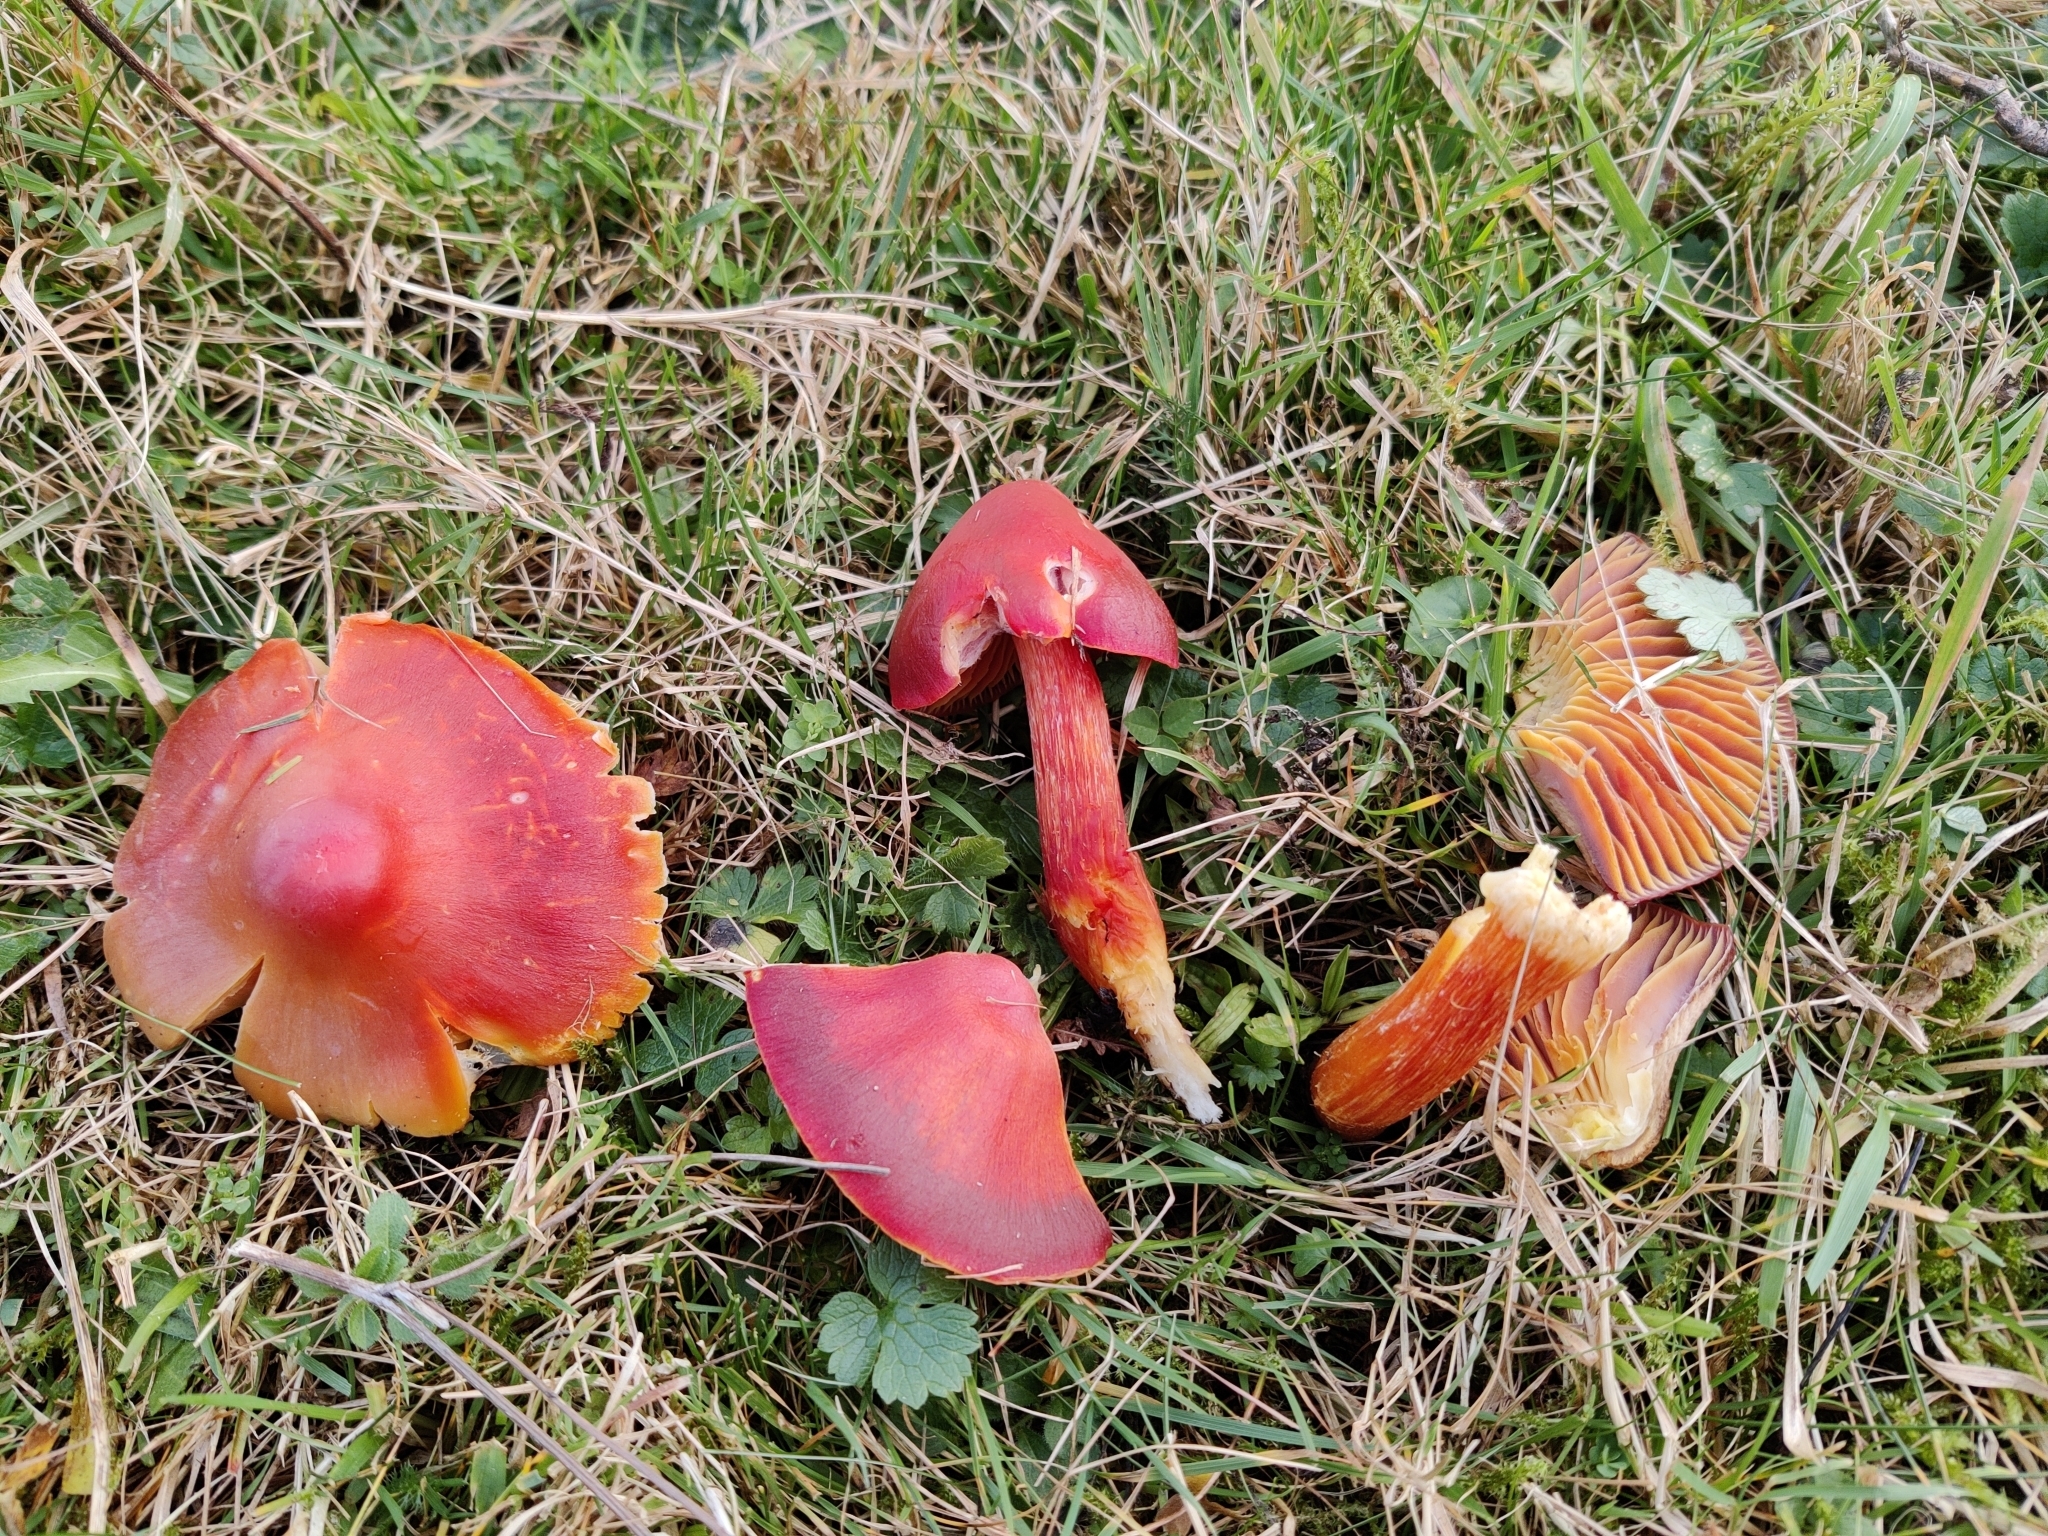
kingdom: Fungi
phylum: Basidiomycota
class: Agaricomycetes
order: Agaricales
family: Hygrophoraceae
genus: Hygrocybe
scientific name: Hygrocybe punicea
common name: Crimson waxcap
